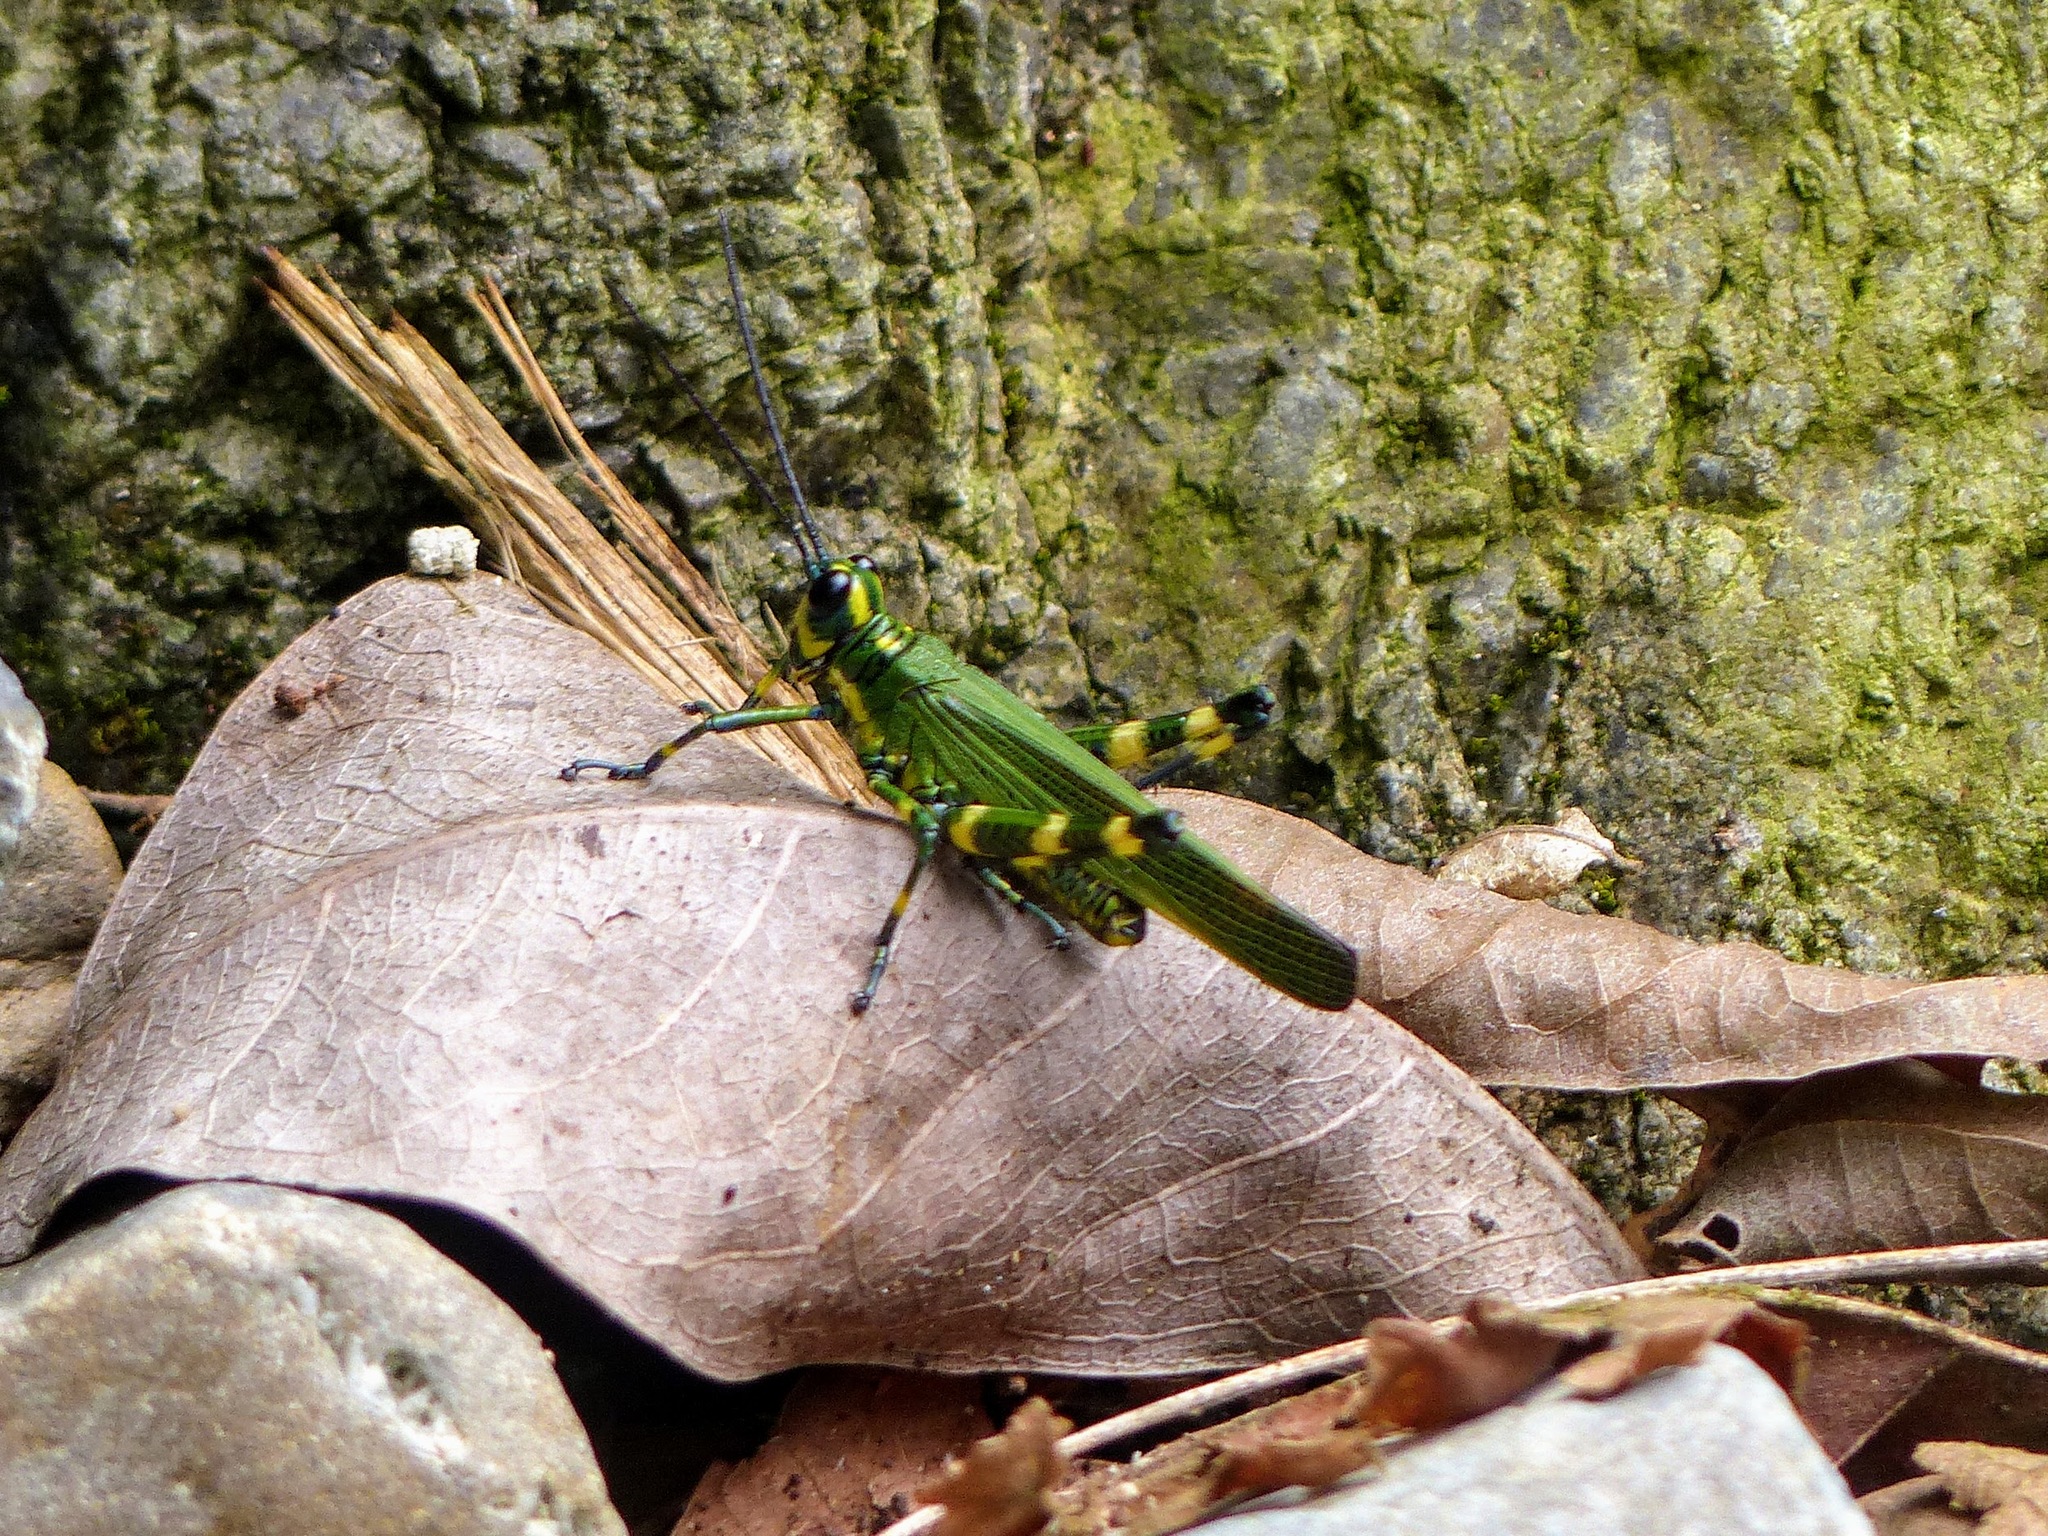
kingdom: Animalia
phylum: Arthropoda
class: Insecta
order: Orthoptera
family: Romaleidae
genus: Chromacris
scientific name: Chromacris psittacus
